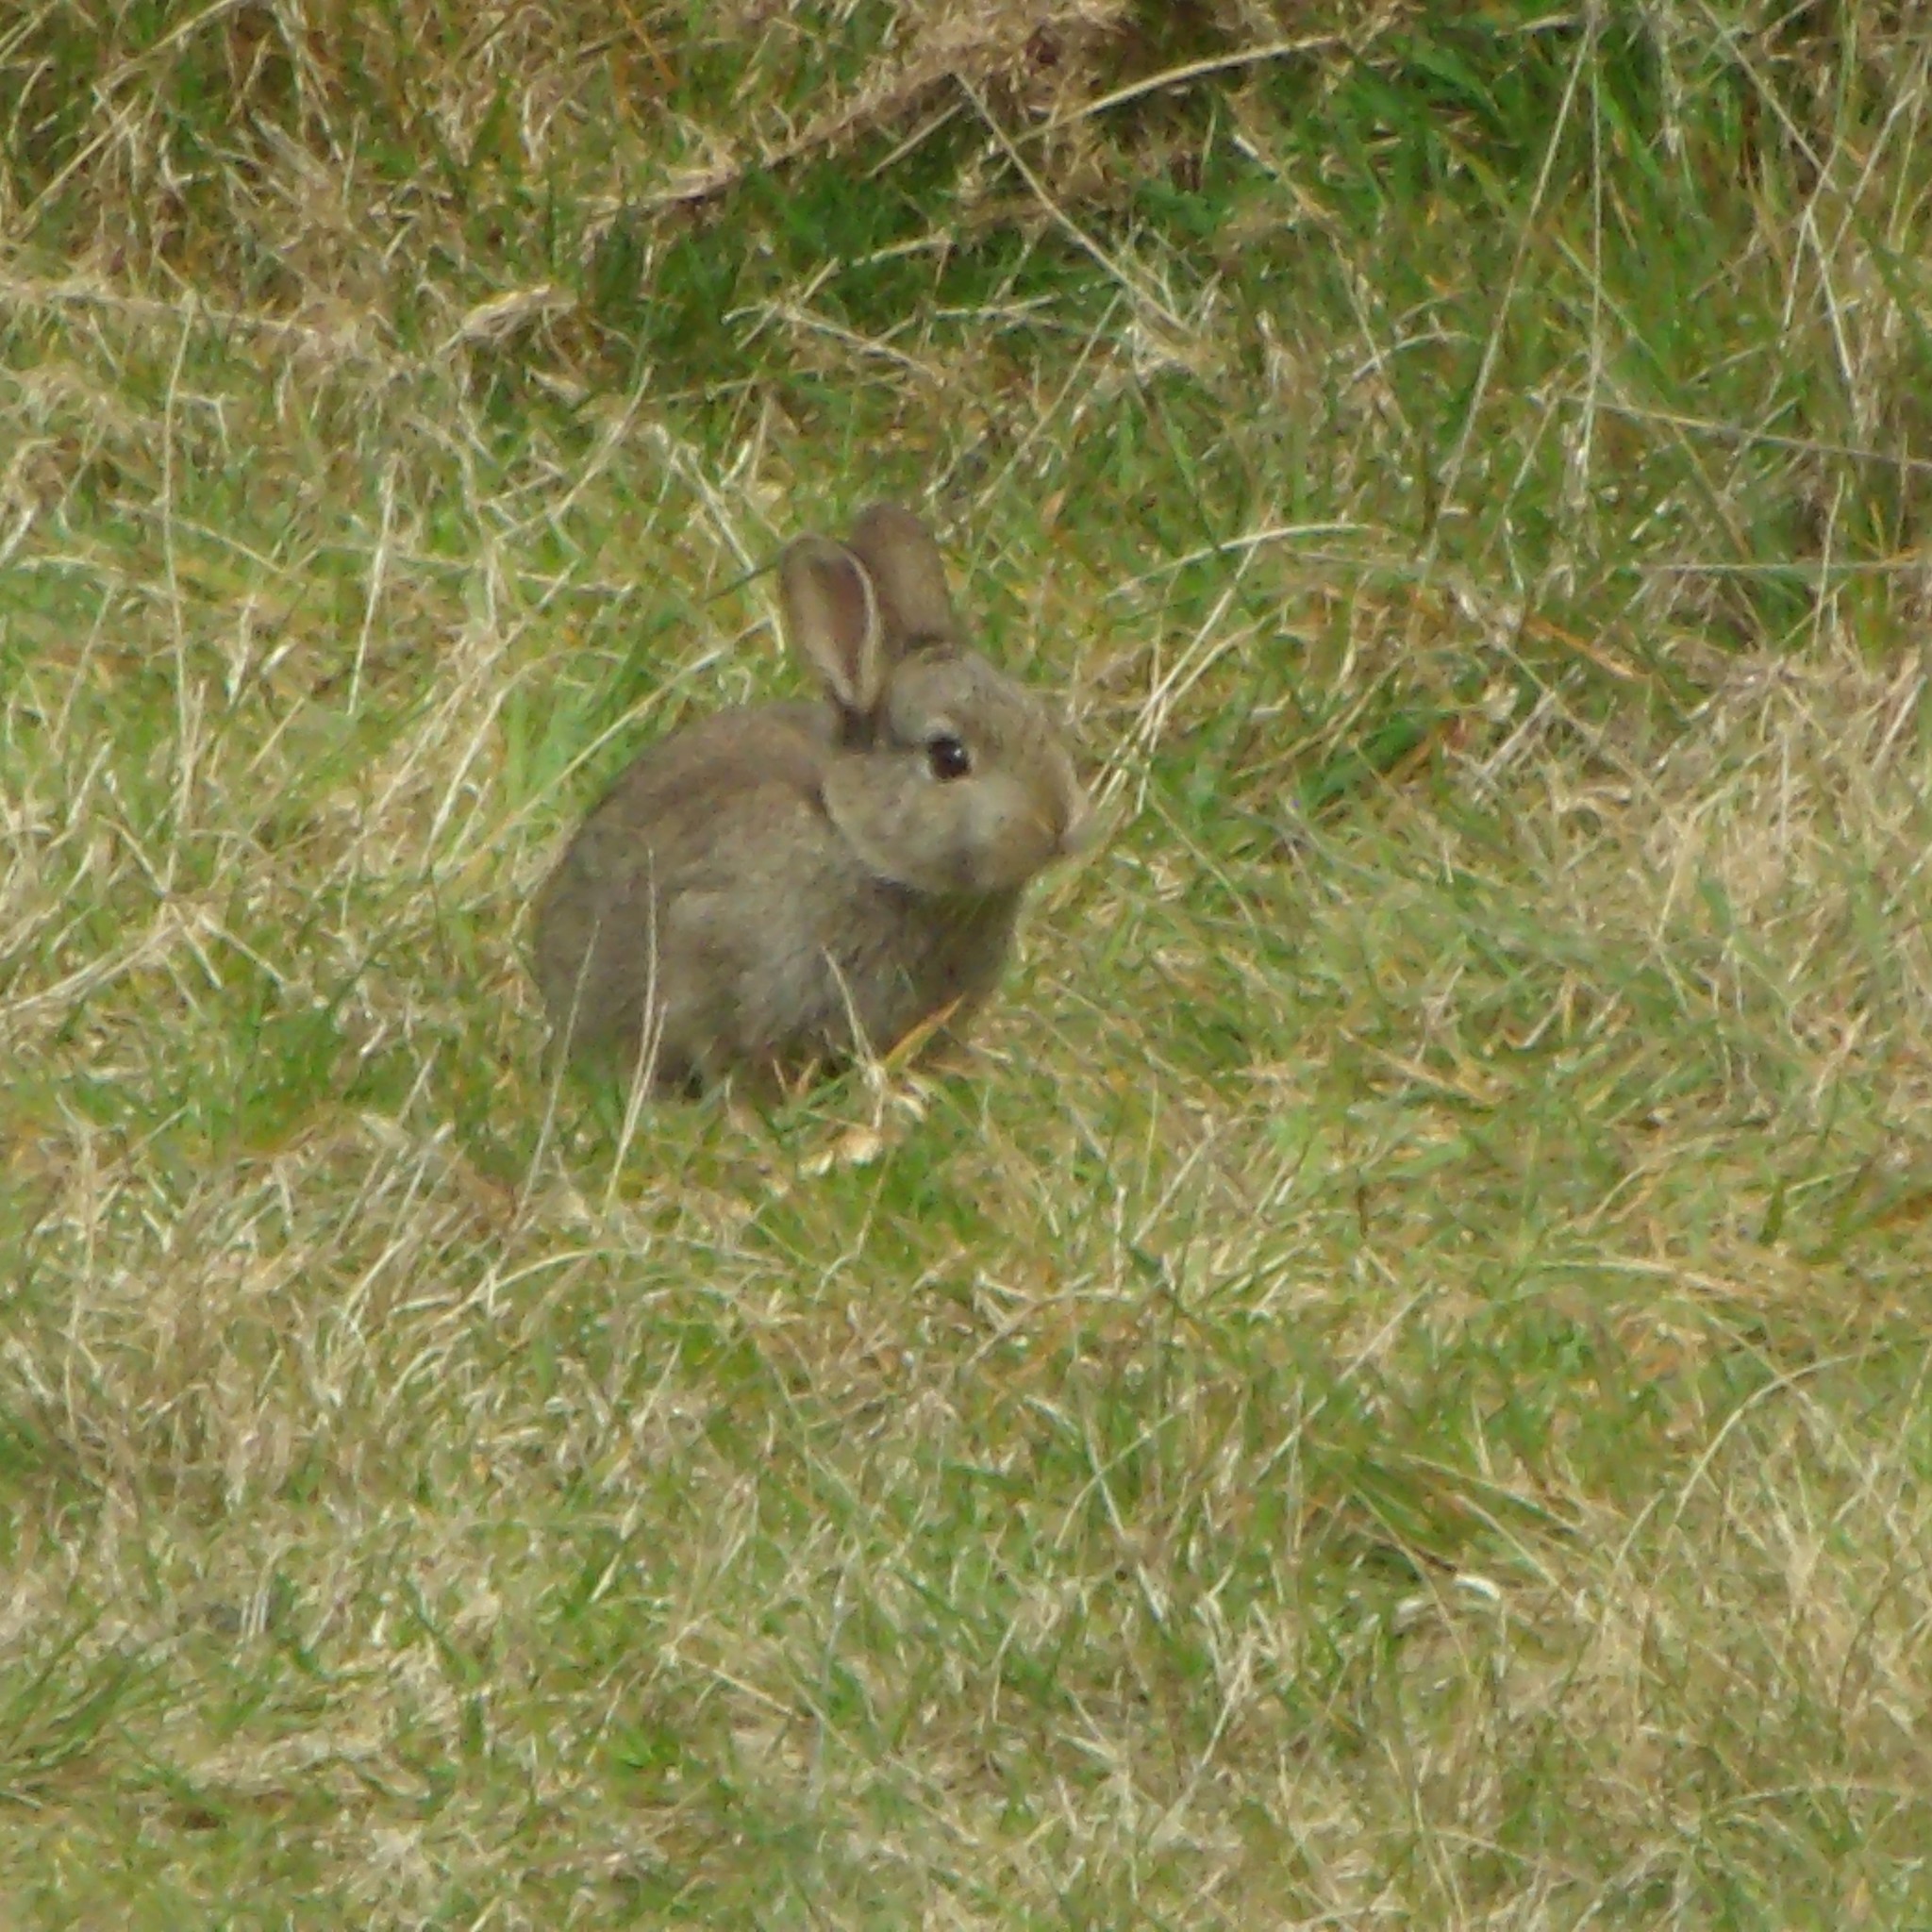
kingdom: Animalia
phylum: Chordata
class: Mammalia
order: Lagomorpha
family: Leporidae
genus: Oryctolagus
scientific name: Oryctolagus cuniculus
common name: European rabbit
